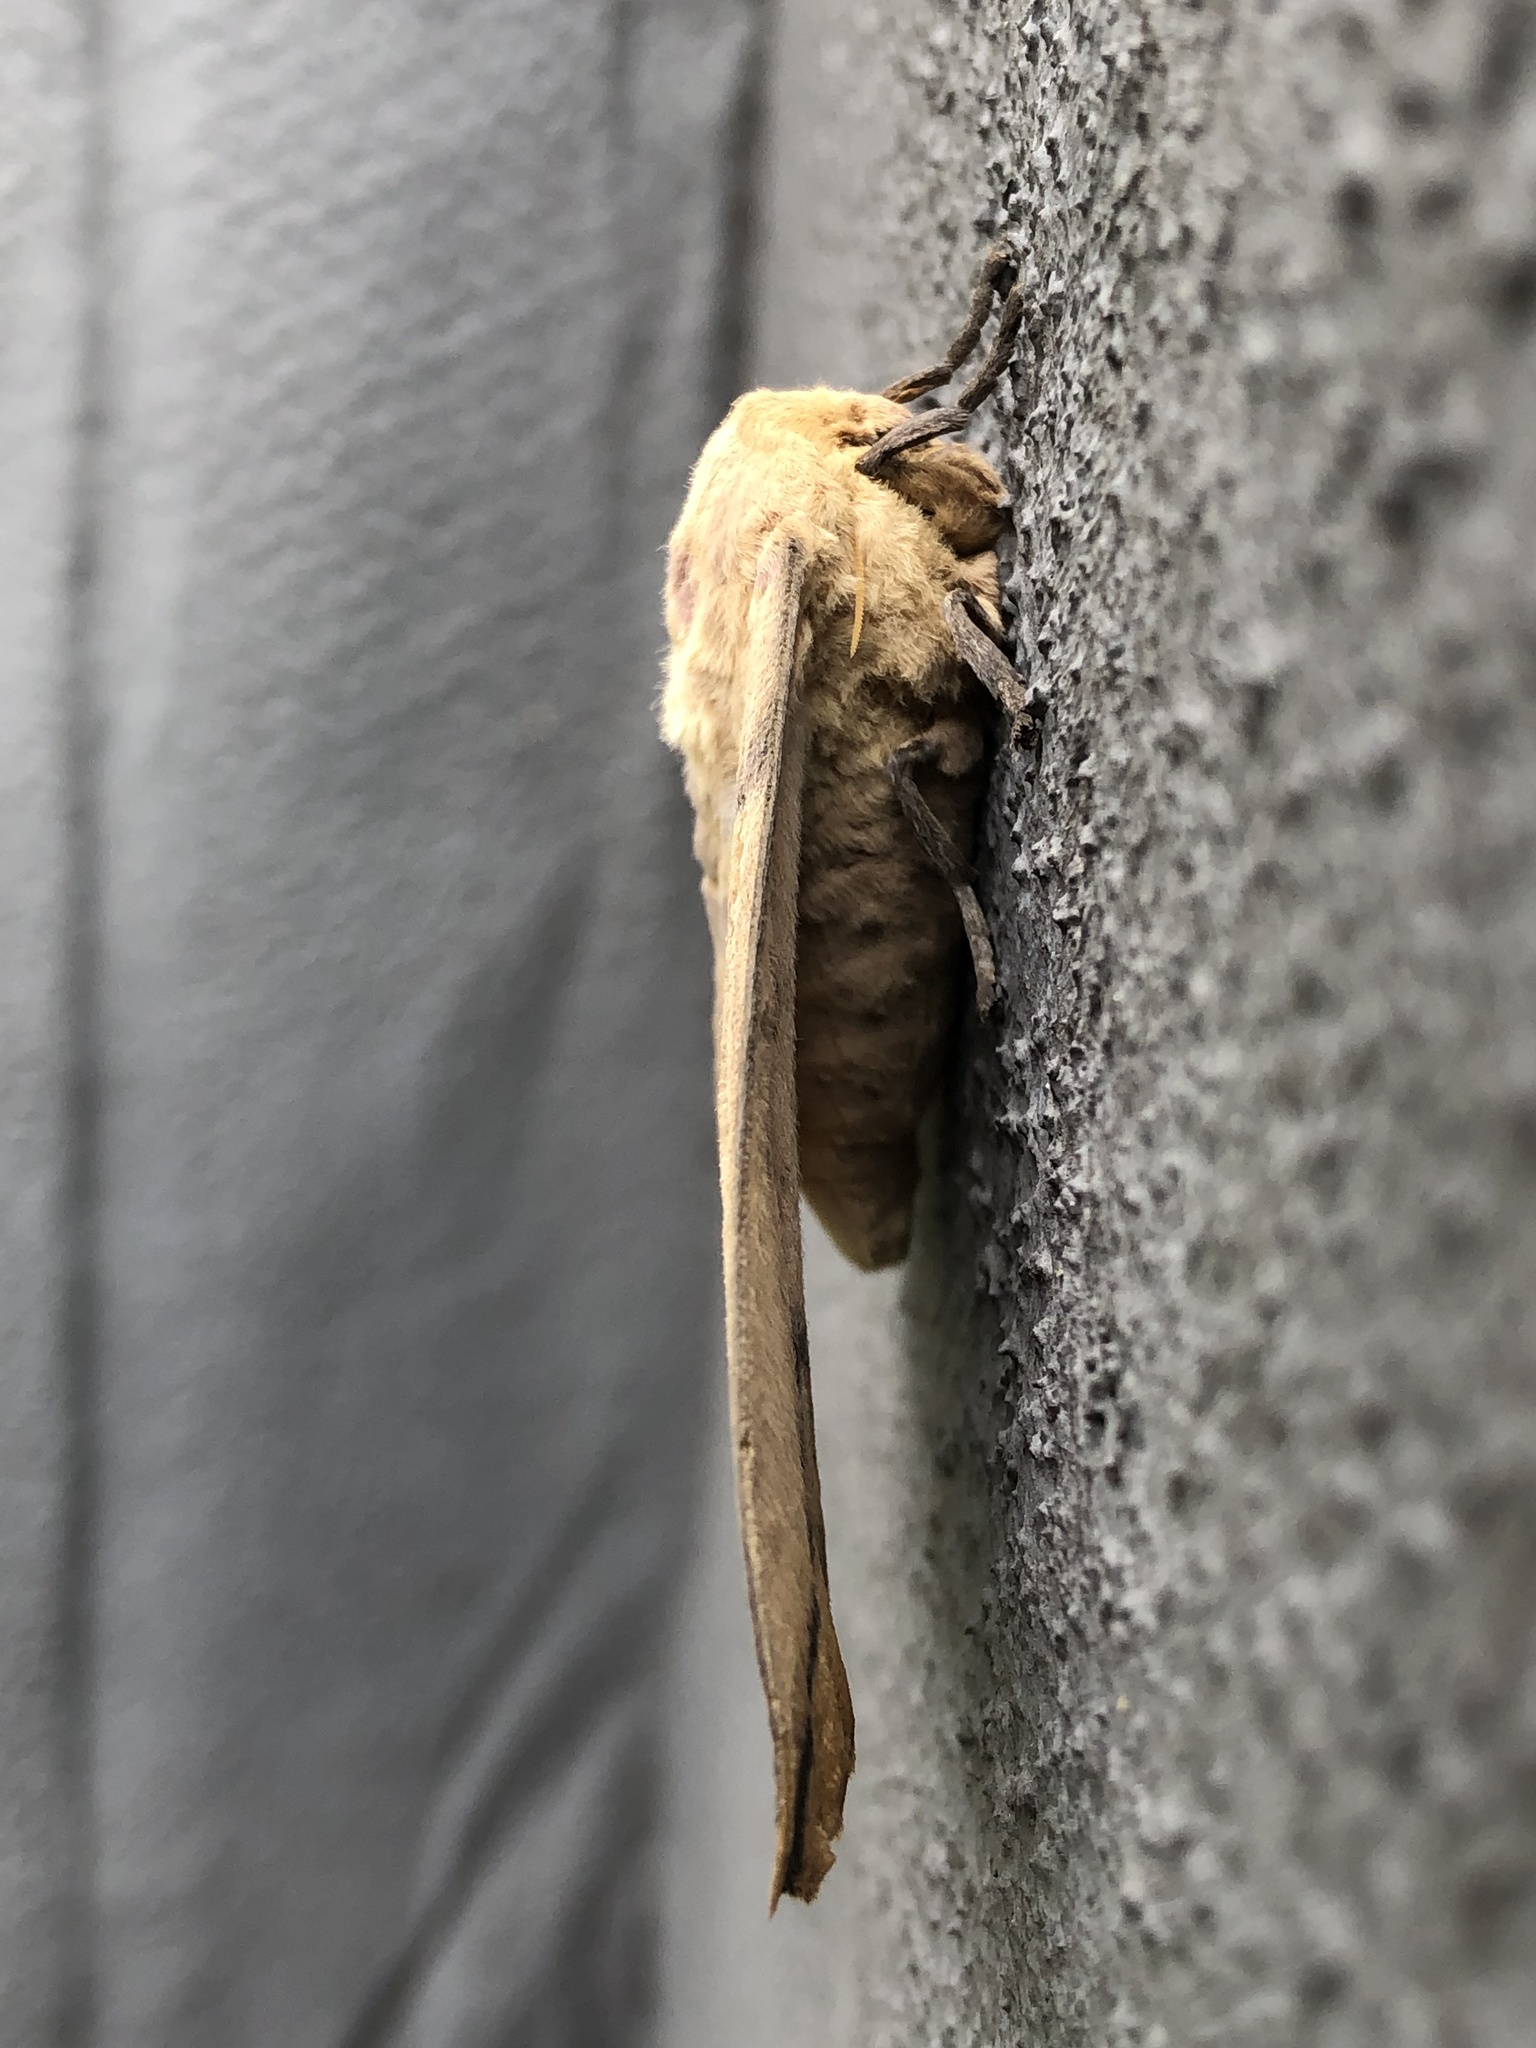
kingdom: Animalia
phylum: Arthropoda
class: Insecta
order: Lepidoptera
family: Saturniidae
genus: Eacles
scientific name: Eacles imperialis
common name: Imperial moth
